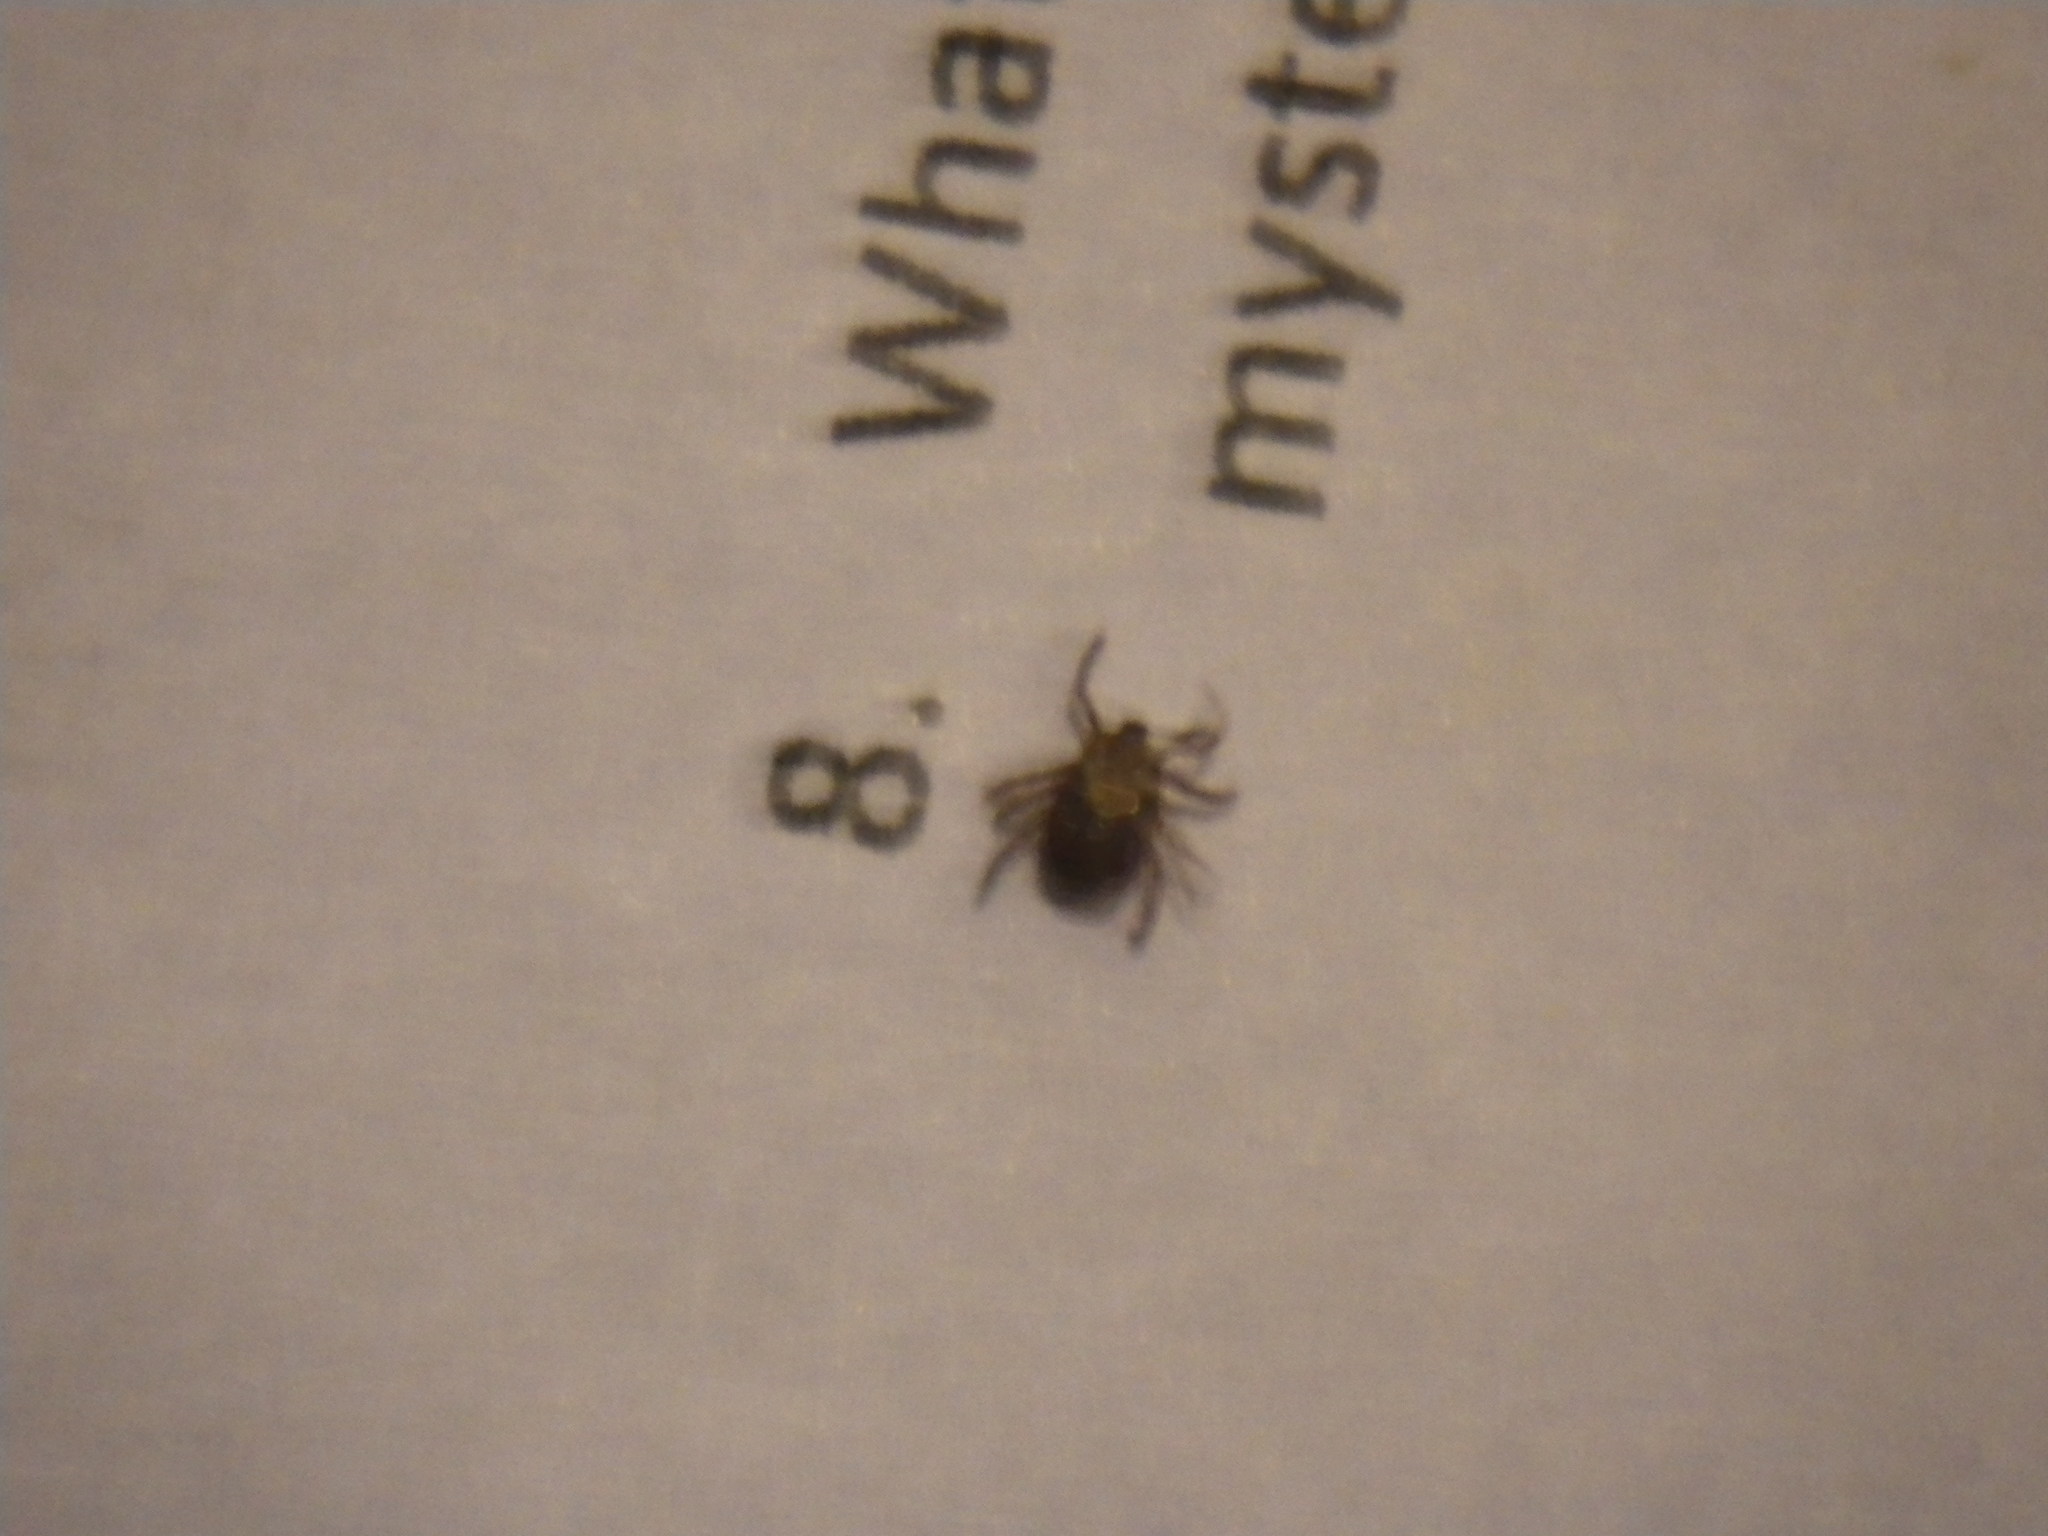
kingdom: Animalia
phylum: Arthropoda
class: Arachnida
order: Ixodida
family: Ixodidae
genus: Dermacentor
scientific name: Dermacentor variabilis
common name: American dog tick
